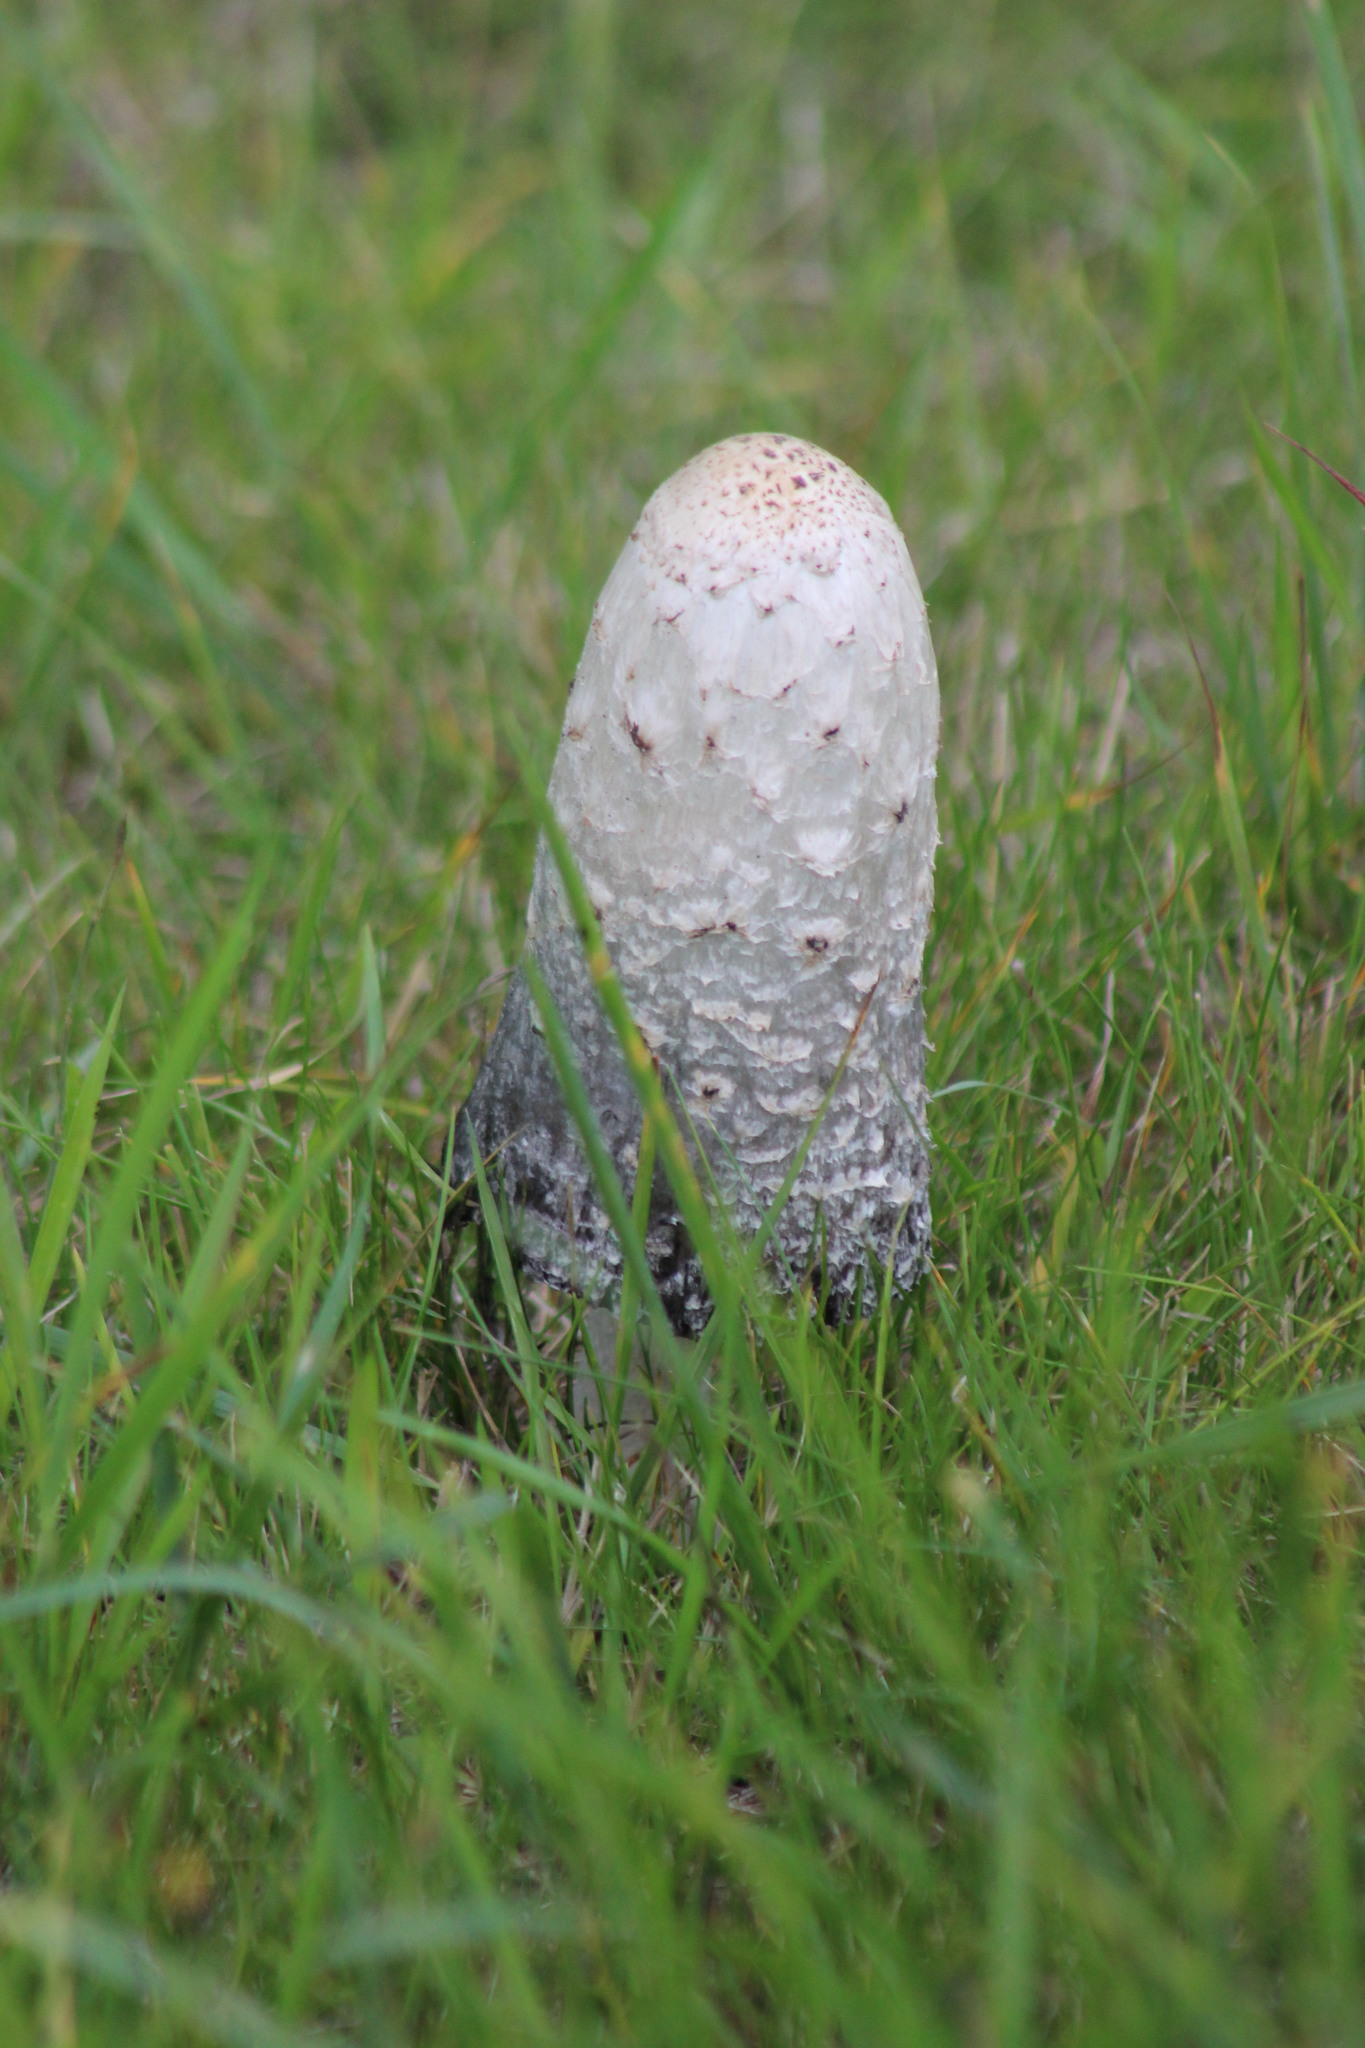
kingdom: Fungi
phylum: Basidiomycota
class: Agaricomycetes
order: Agaricales
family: Agaricaceae
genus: Coprinus
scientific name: Coprinus comatus
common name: Lawyer's wig
